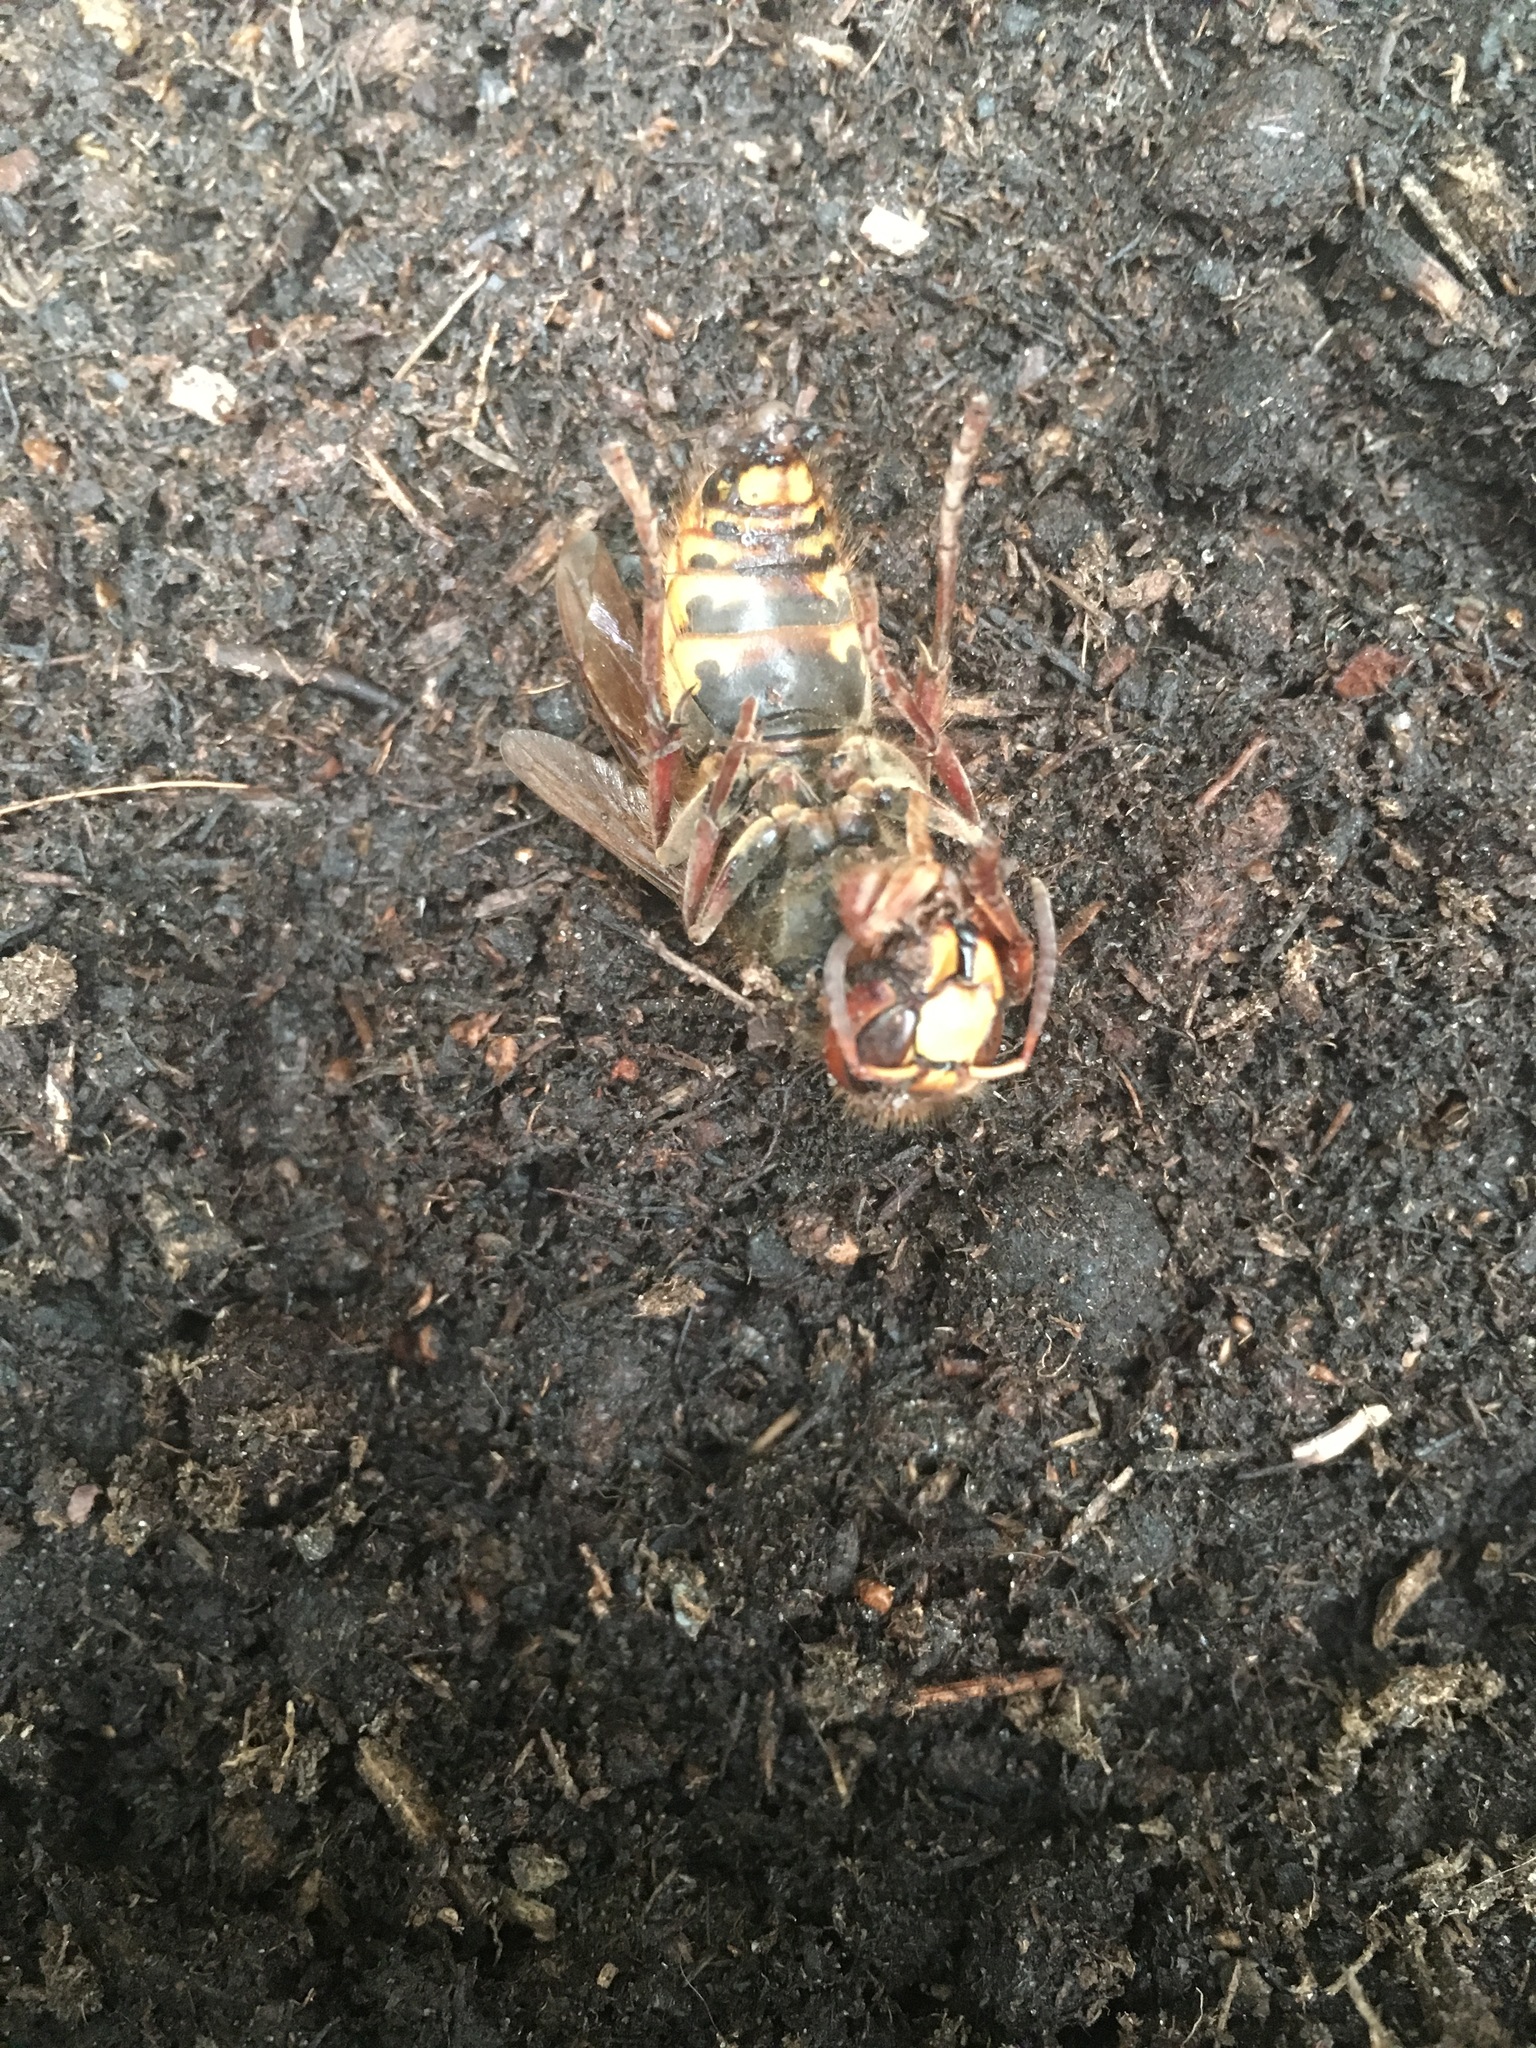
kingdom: Animalia
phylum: Arthropoda
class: Insecta
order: Hymenoptera
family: Vespidae
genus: Vespa
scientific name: Vespa crabro
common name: Hornet
